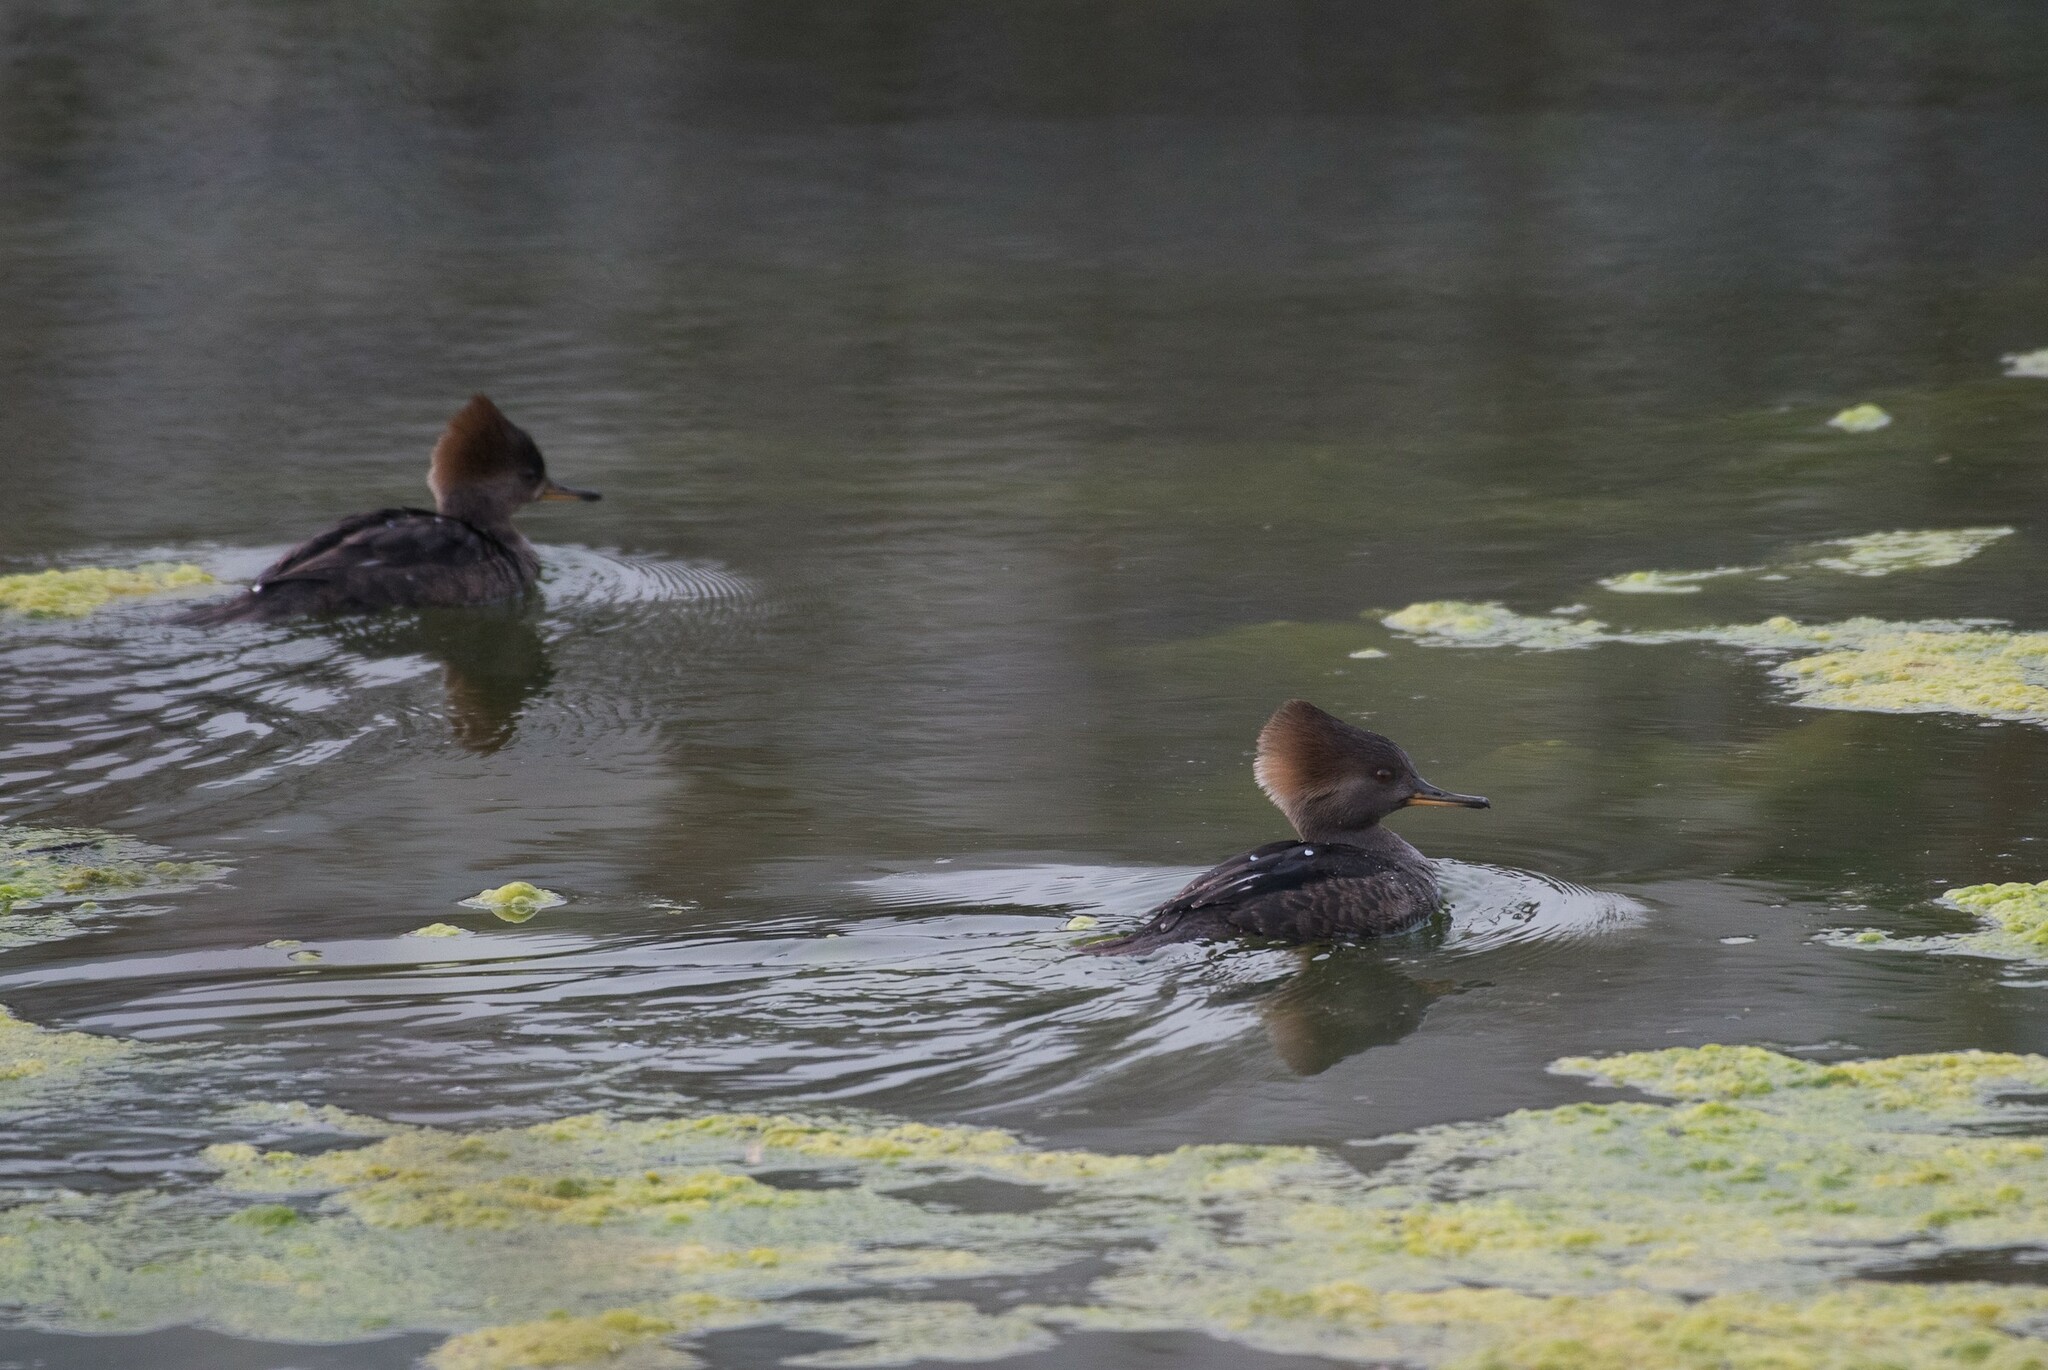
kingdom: Animalia
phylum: Chordata
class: Aves
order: Anseriformes
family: Anatidae
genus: Lophodytes
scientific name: Lophodytes cucullatus
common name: Hooded merganser
